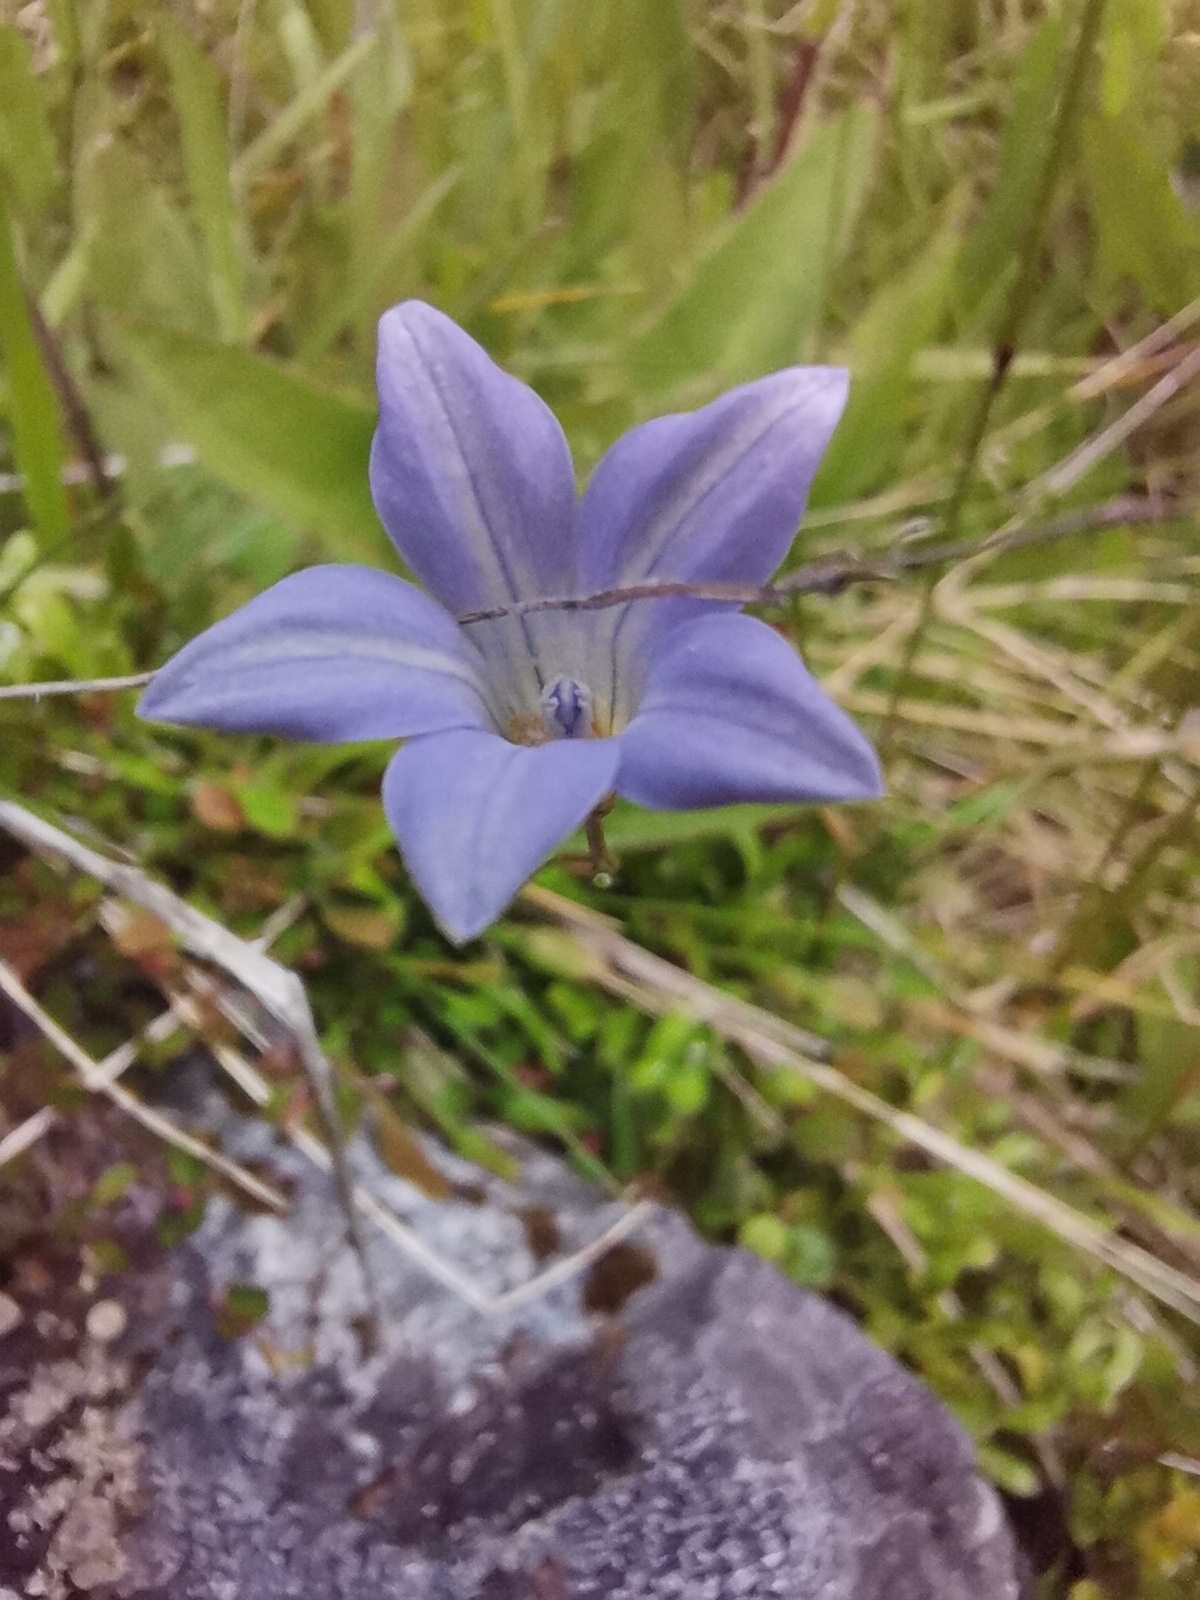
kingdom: Plantae
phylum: Tracheophyta
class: Magnoliopsida
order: Asterales
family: Campanulaceae
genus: Wahlenbergia
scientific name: Wahlenbergia albomarginata
